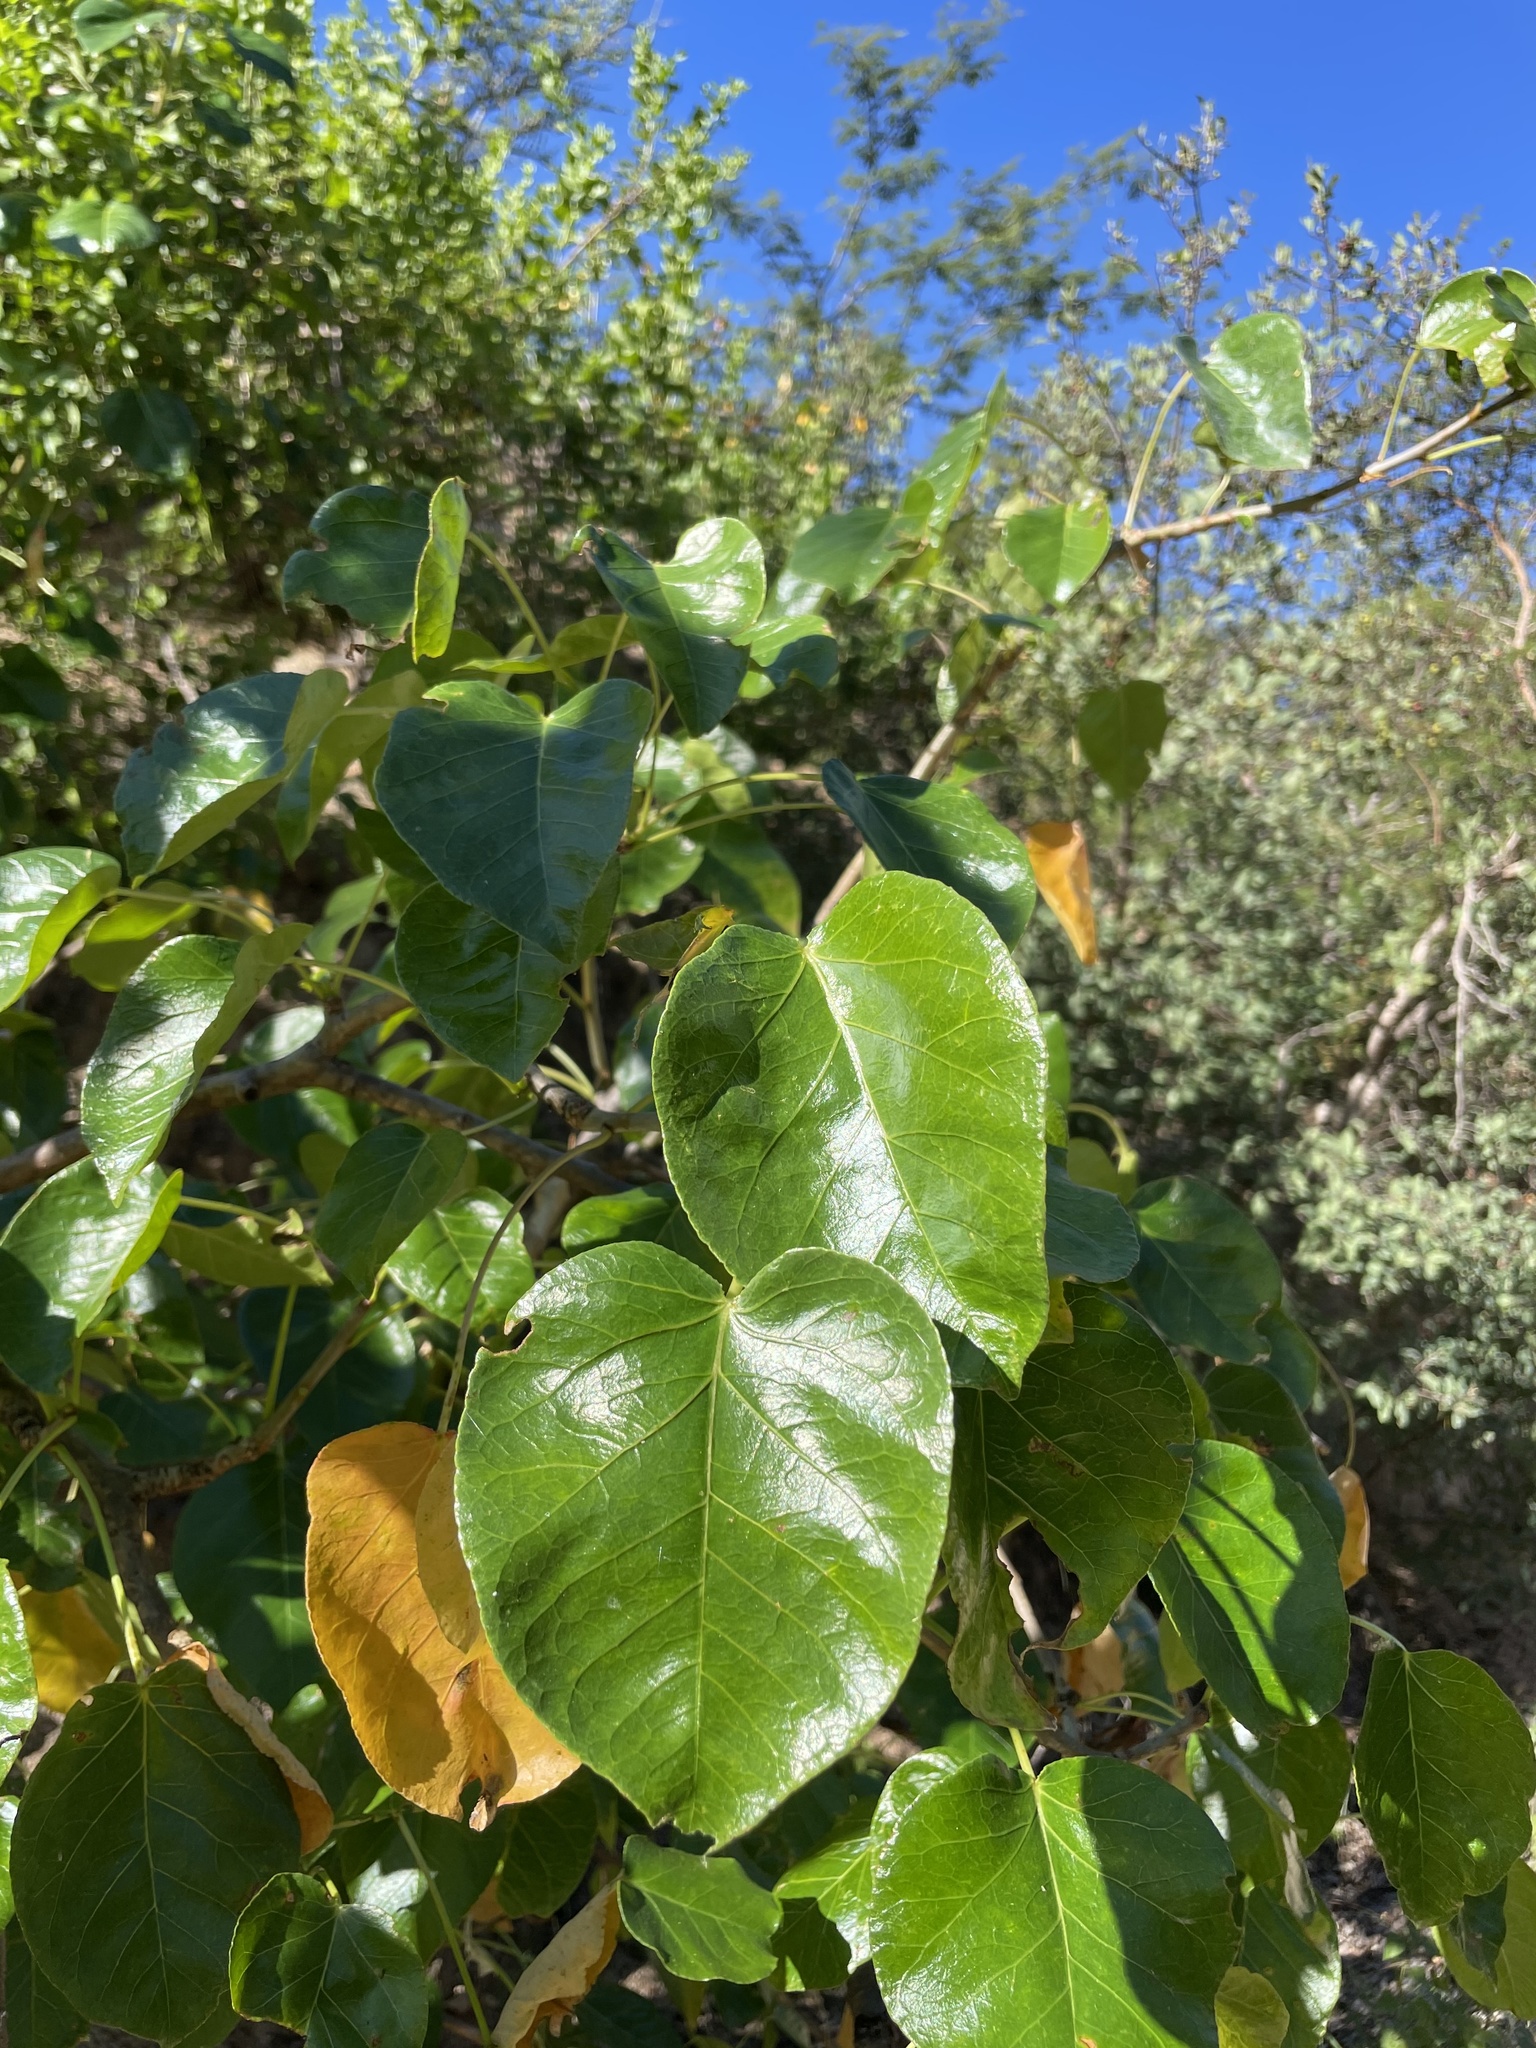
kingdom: Plantae
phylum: Tracheophyta
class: Magnoliopsida
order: Malpighiales
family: Euphorbiaceae
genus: Jatropha
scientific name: Jatropha vernicosa
